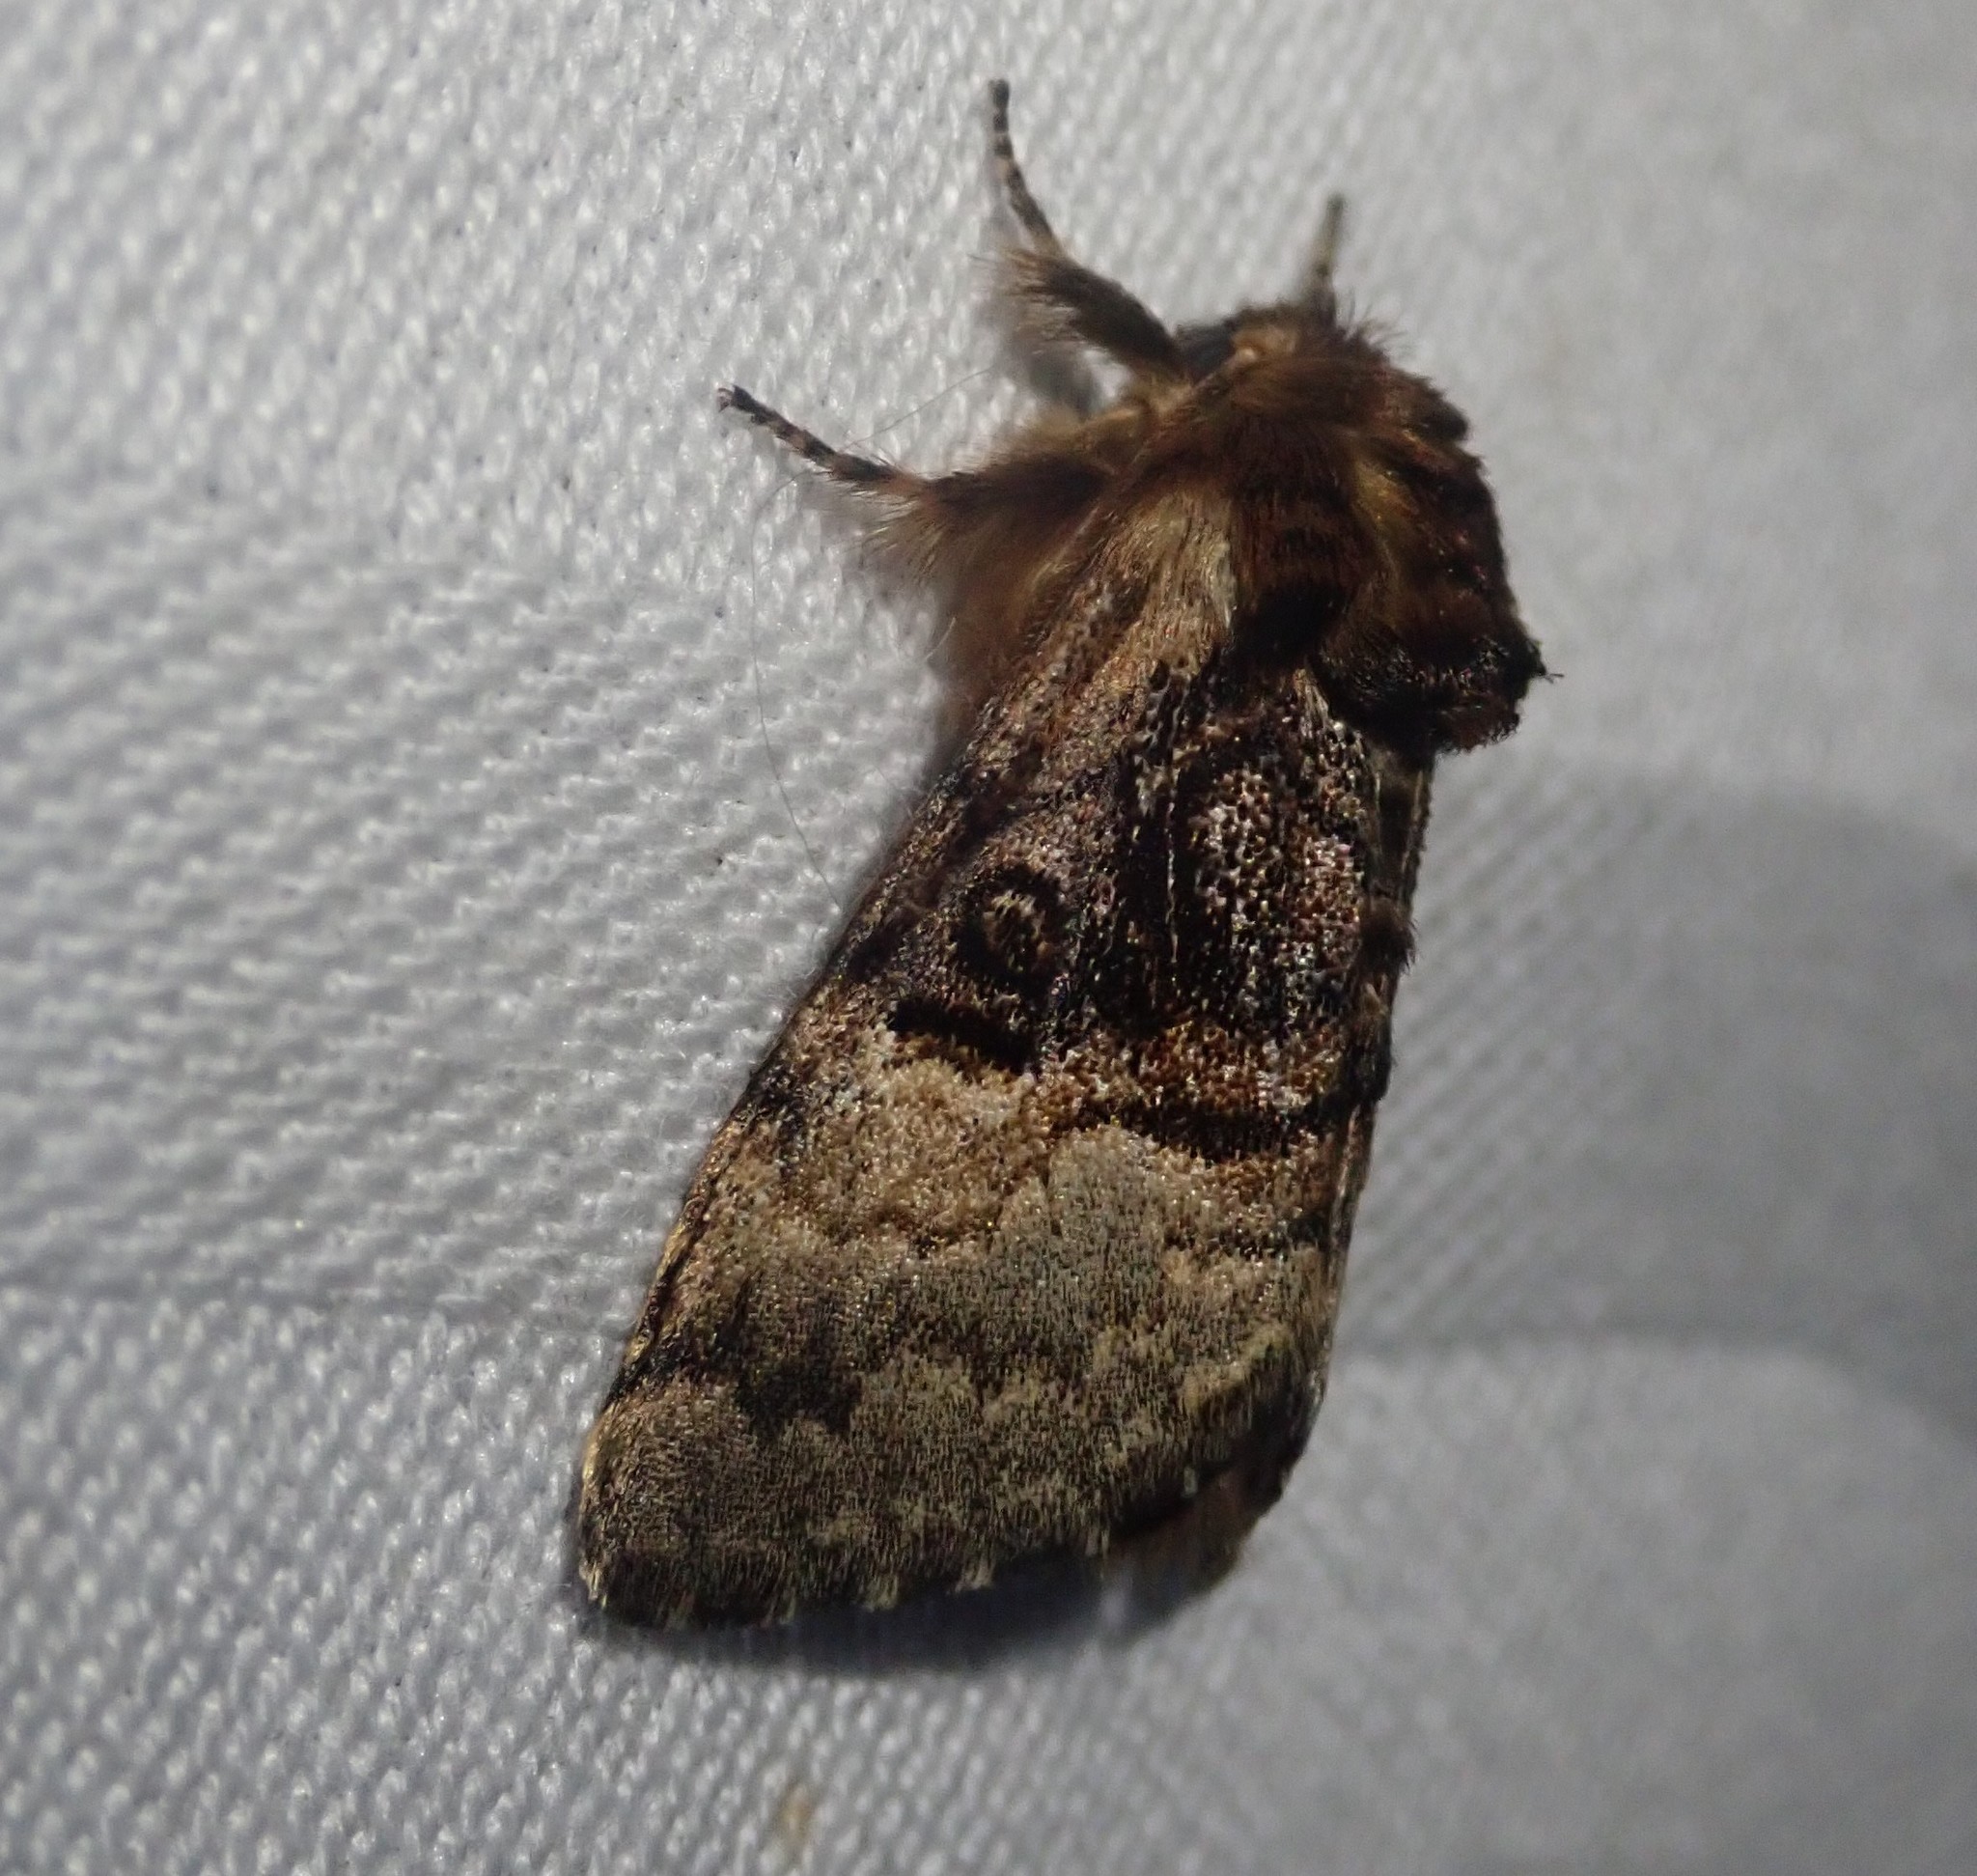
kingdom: Animalia
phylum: Arthropoda
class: Insecta
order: Lepidoptera
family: Noctuidae
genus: Colocasia
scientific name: Colocasia coryli
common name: Nut-tree tussock
